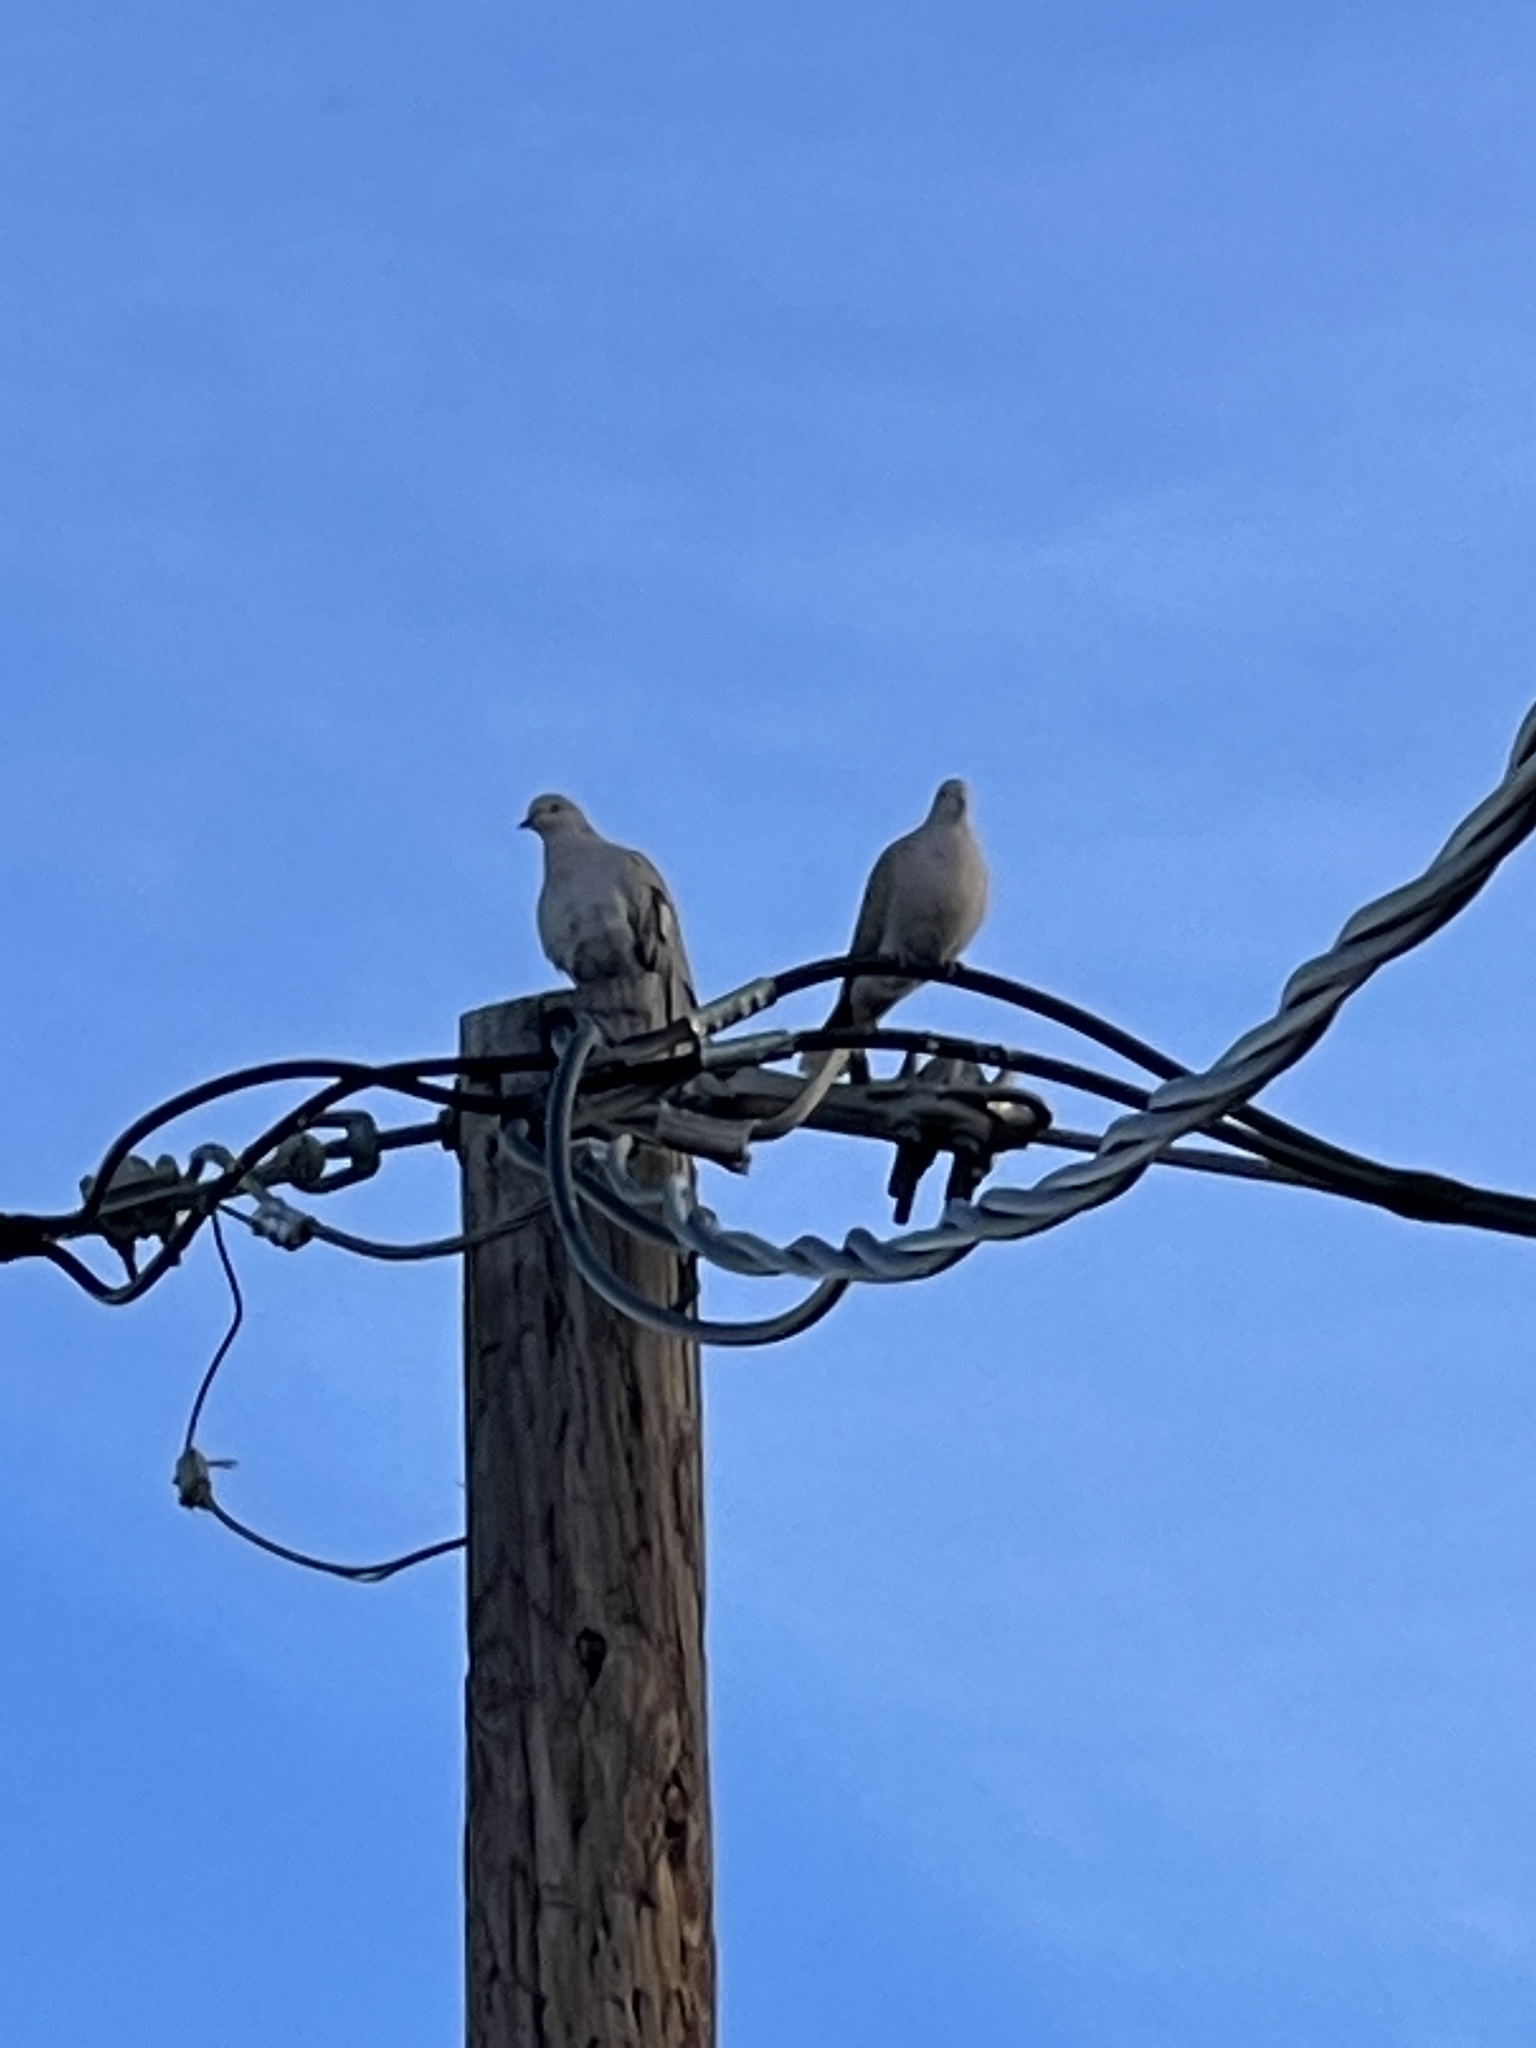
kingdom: Animalia
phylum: Chordata
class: Aves
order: Columbiformes
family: Columbidae
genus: Streptopelia
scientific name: Streptopelia decaocto
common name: Eurasian collared dove
